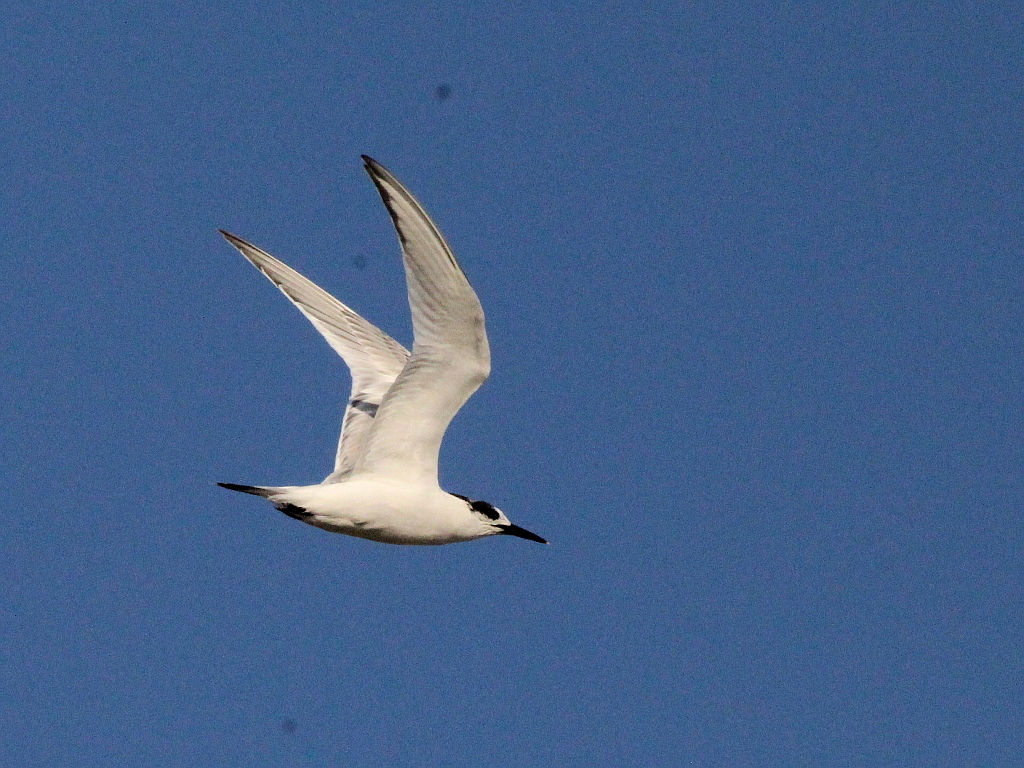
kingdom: Animalia
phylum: Chordata
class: Aves
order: Charadriiformes
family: Laridae
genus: Thalasseus
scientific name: Thalasseus sandvicensis
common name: Sandwich tern
